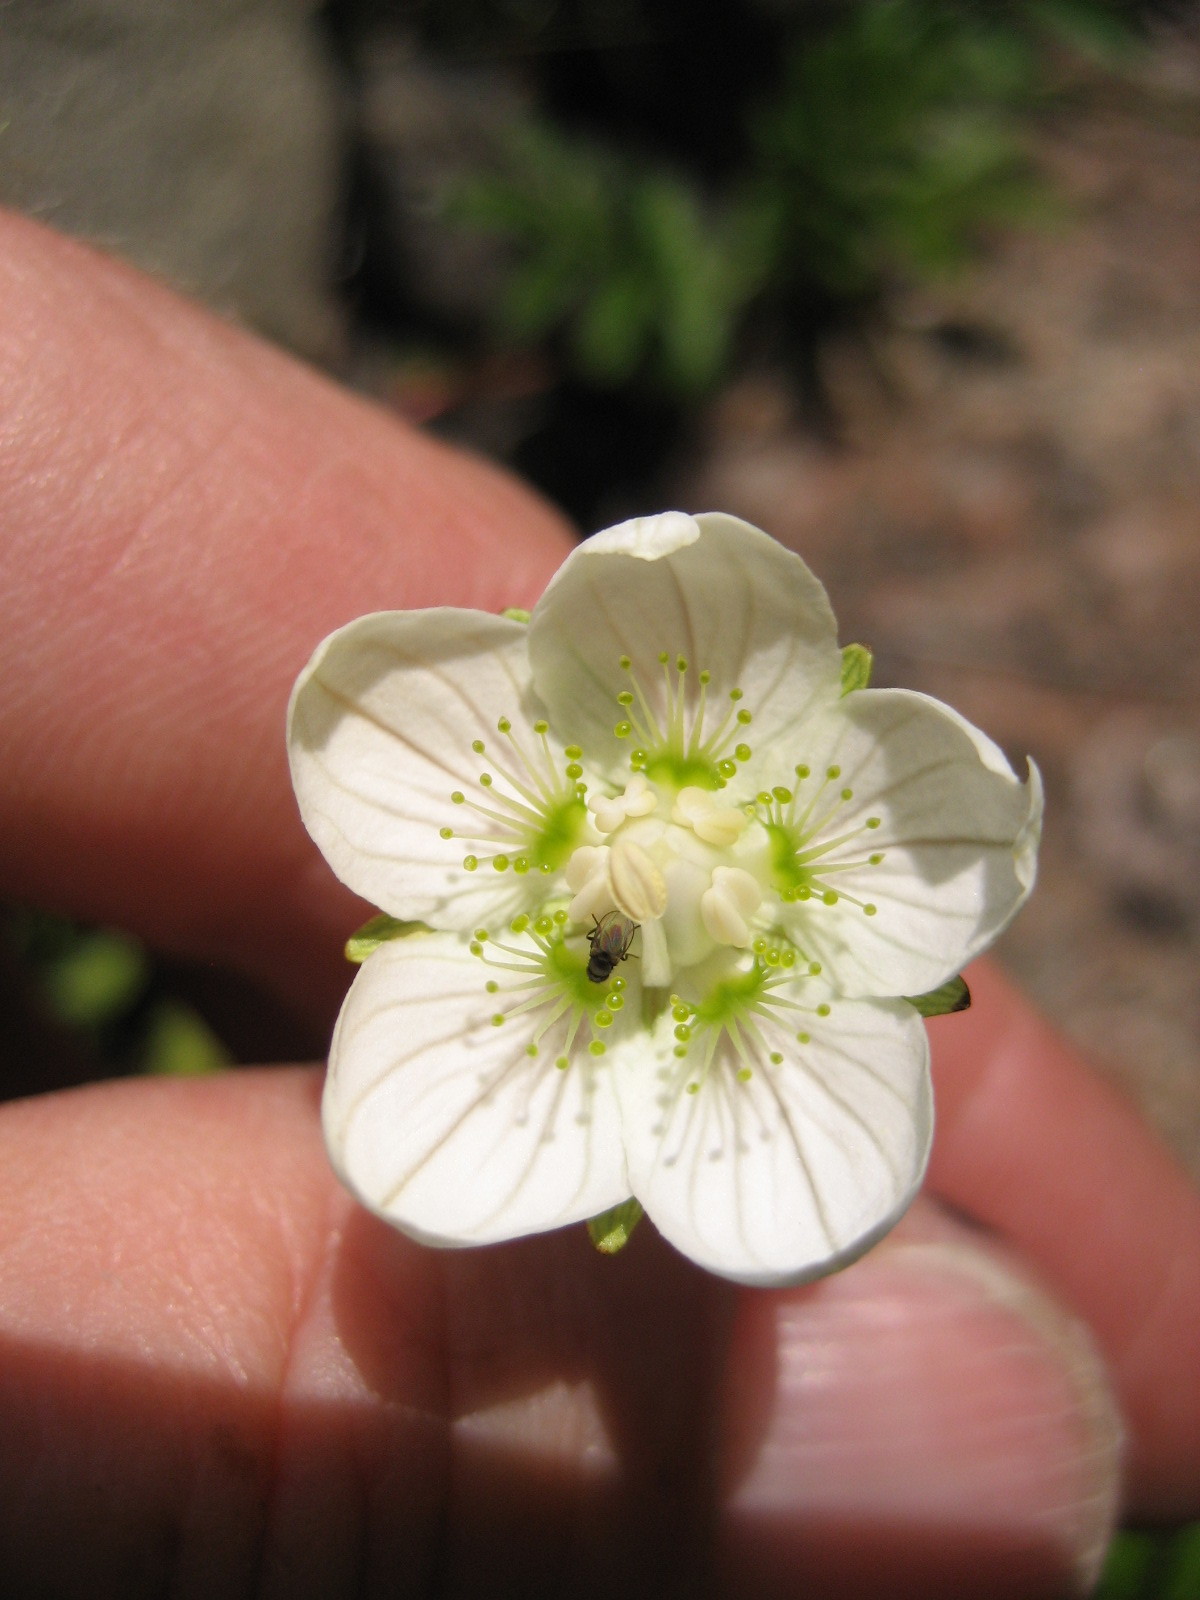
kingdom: Plantae
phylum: Tracheophyta
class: Magnoliopsida
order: Celastrales
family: Parnassiaceae
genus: Parnassia
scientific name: Parnassia palustris
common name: Grass-of-parnassus
